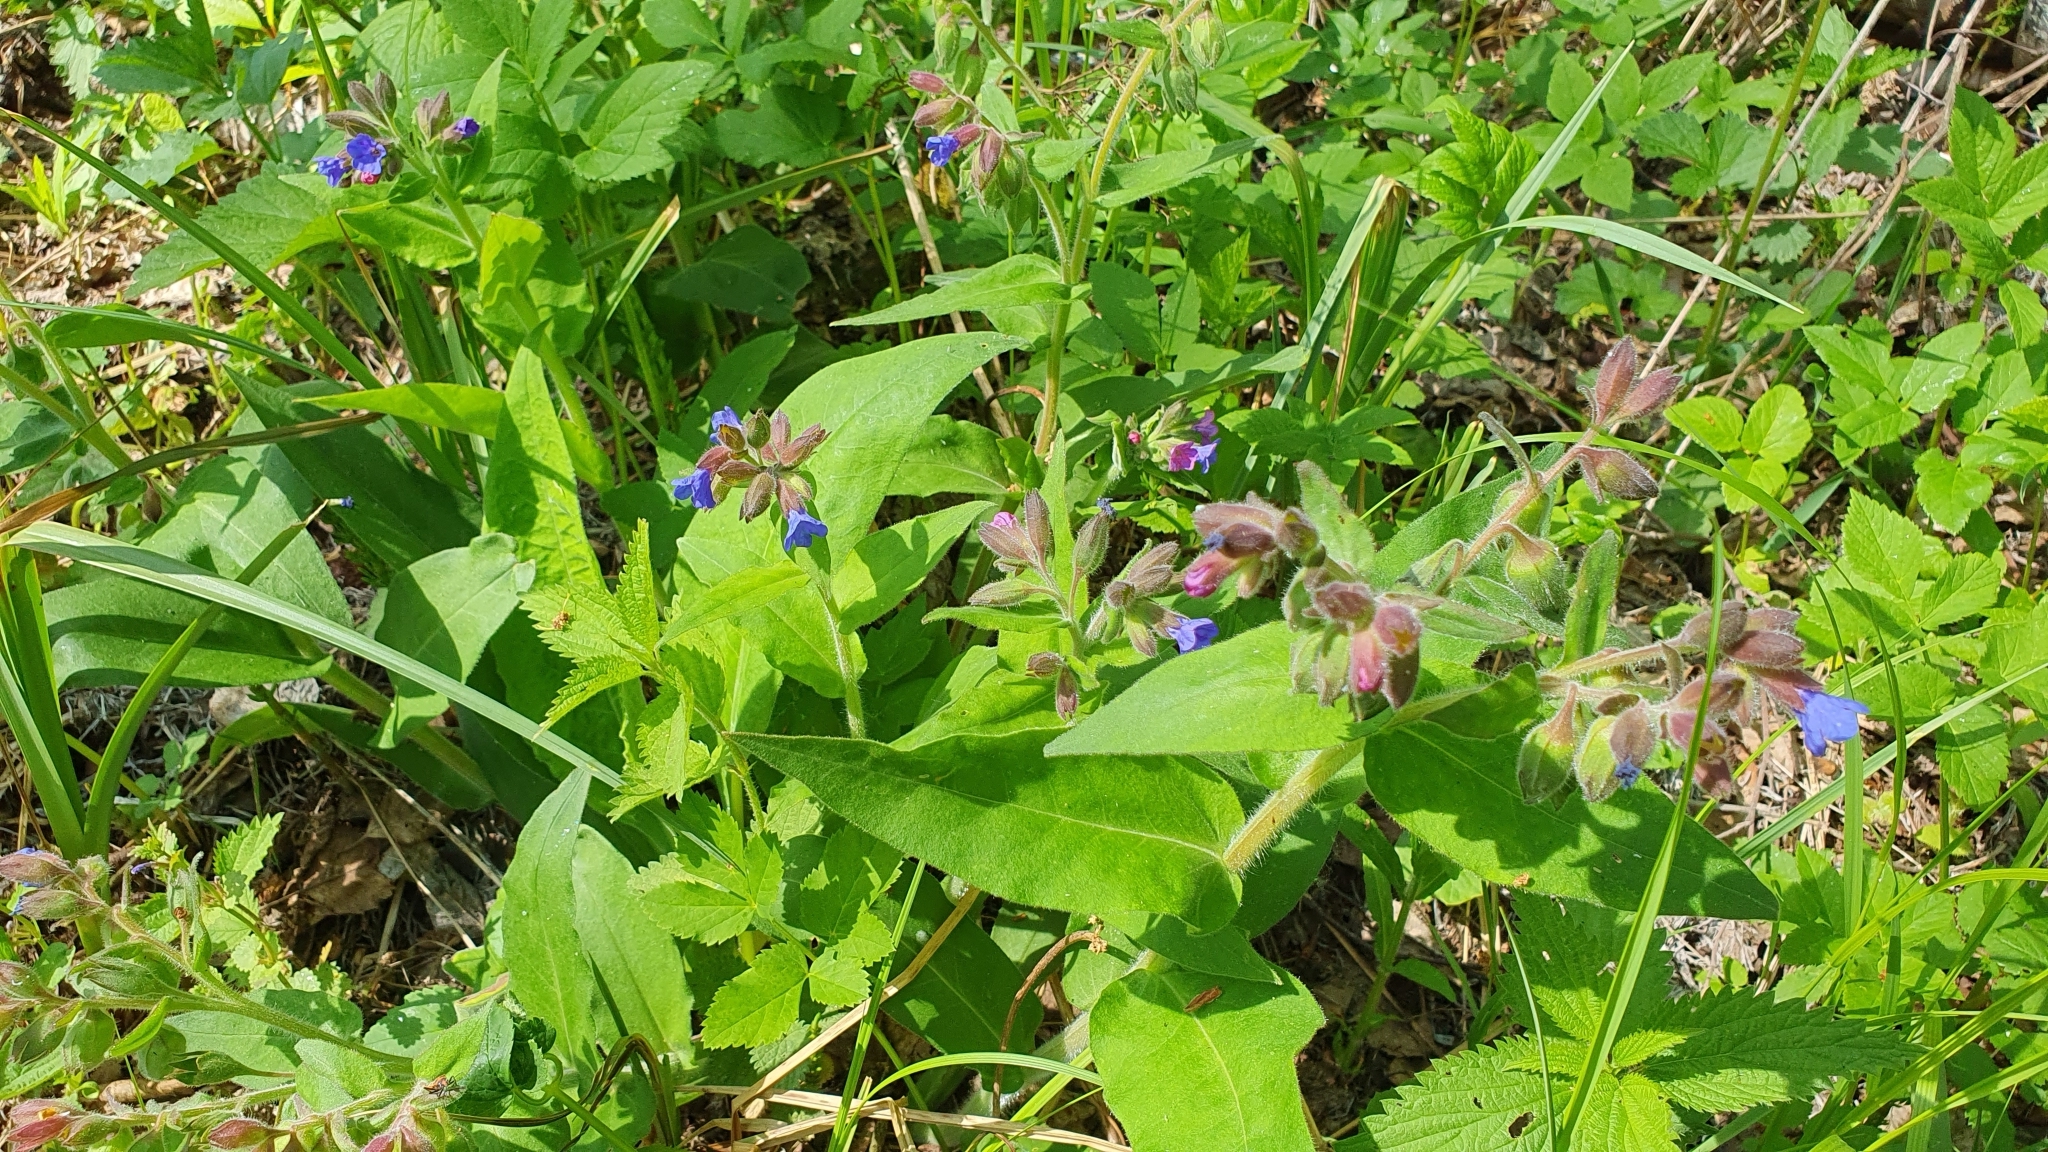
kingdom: Plantae
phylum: Tracheophyta
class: Magnoliopsida
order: Boraginales
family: Boraginaceae
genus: Pulmonaria
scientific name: Pulmonaria mollis
